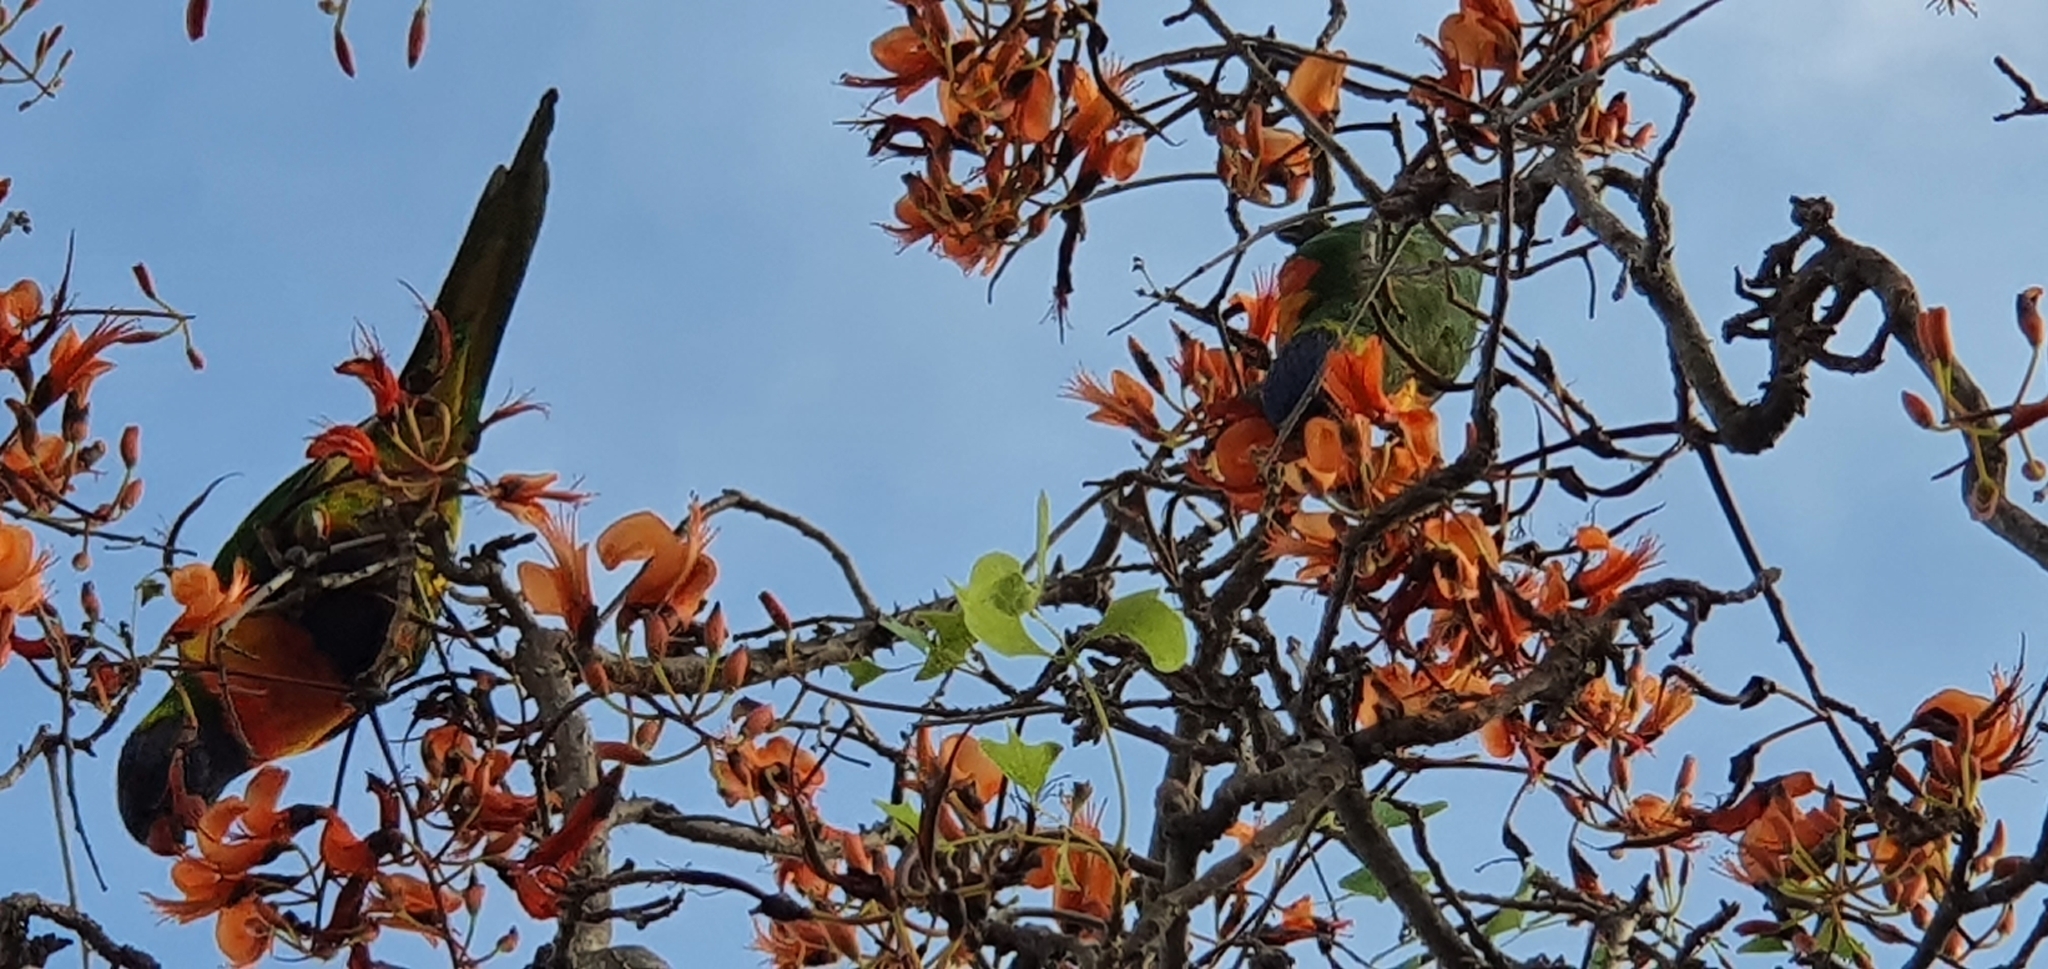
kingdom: Animalia
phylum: Chordata
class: Aves
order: Psittaciformes
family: Psittacidae
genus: Trichoglossus
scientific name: Trichoglossus haematodus
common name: Coconut lorikeet
